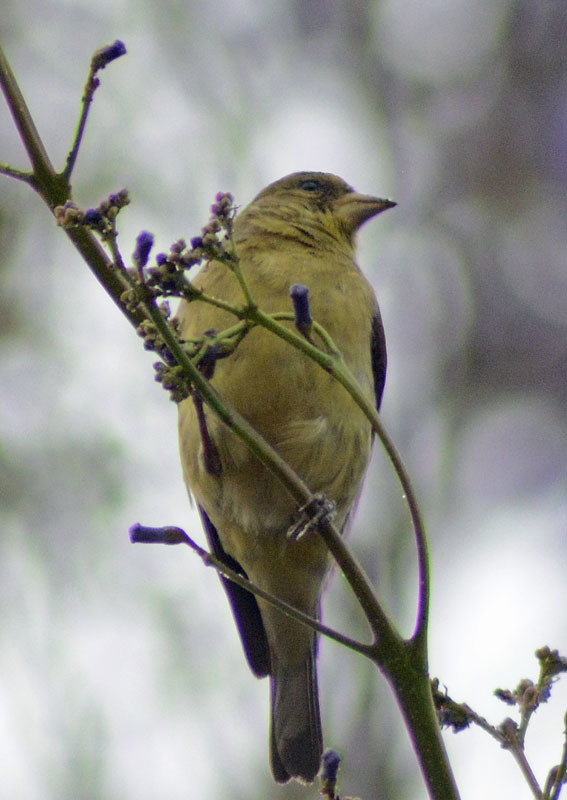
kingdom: Animalia
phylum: Chordata
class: Aves
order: Passeriformes
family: Fringillidae
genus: Spinus
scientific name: Spinus psaltria
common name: Lesser goldfinch
